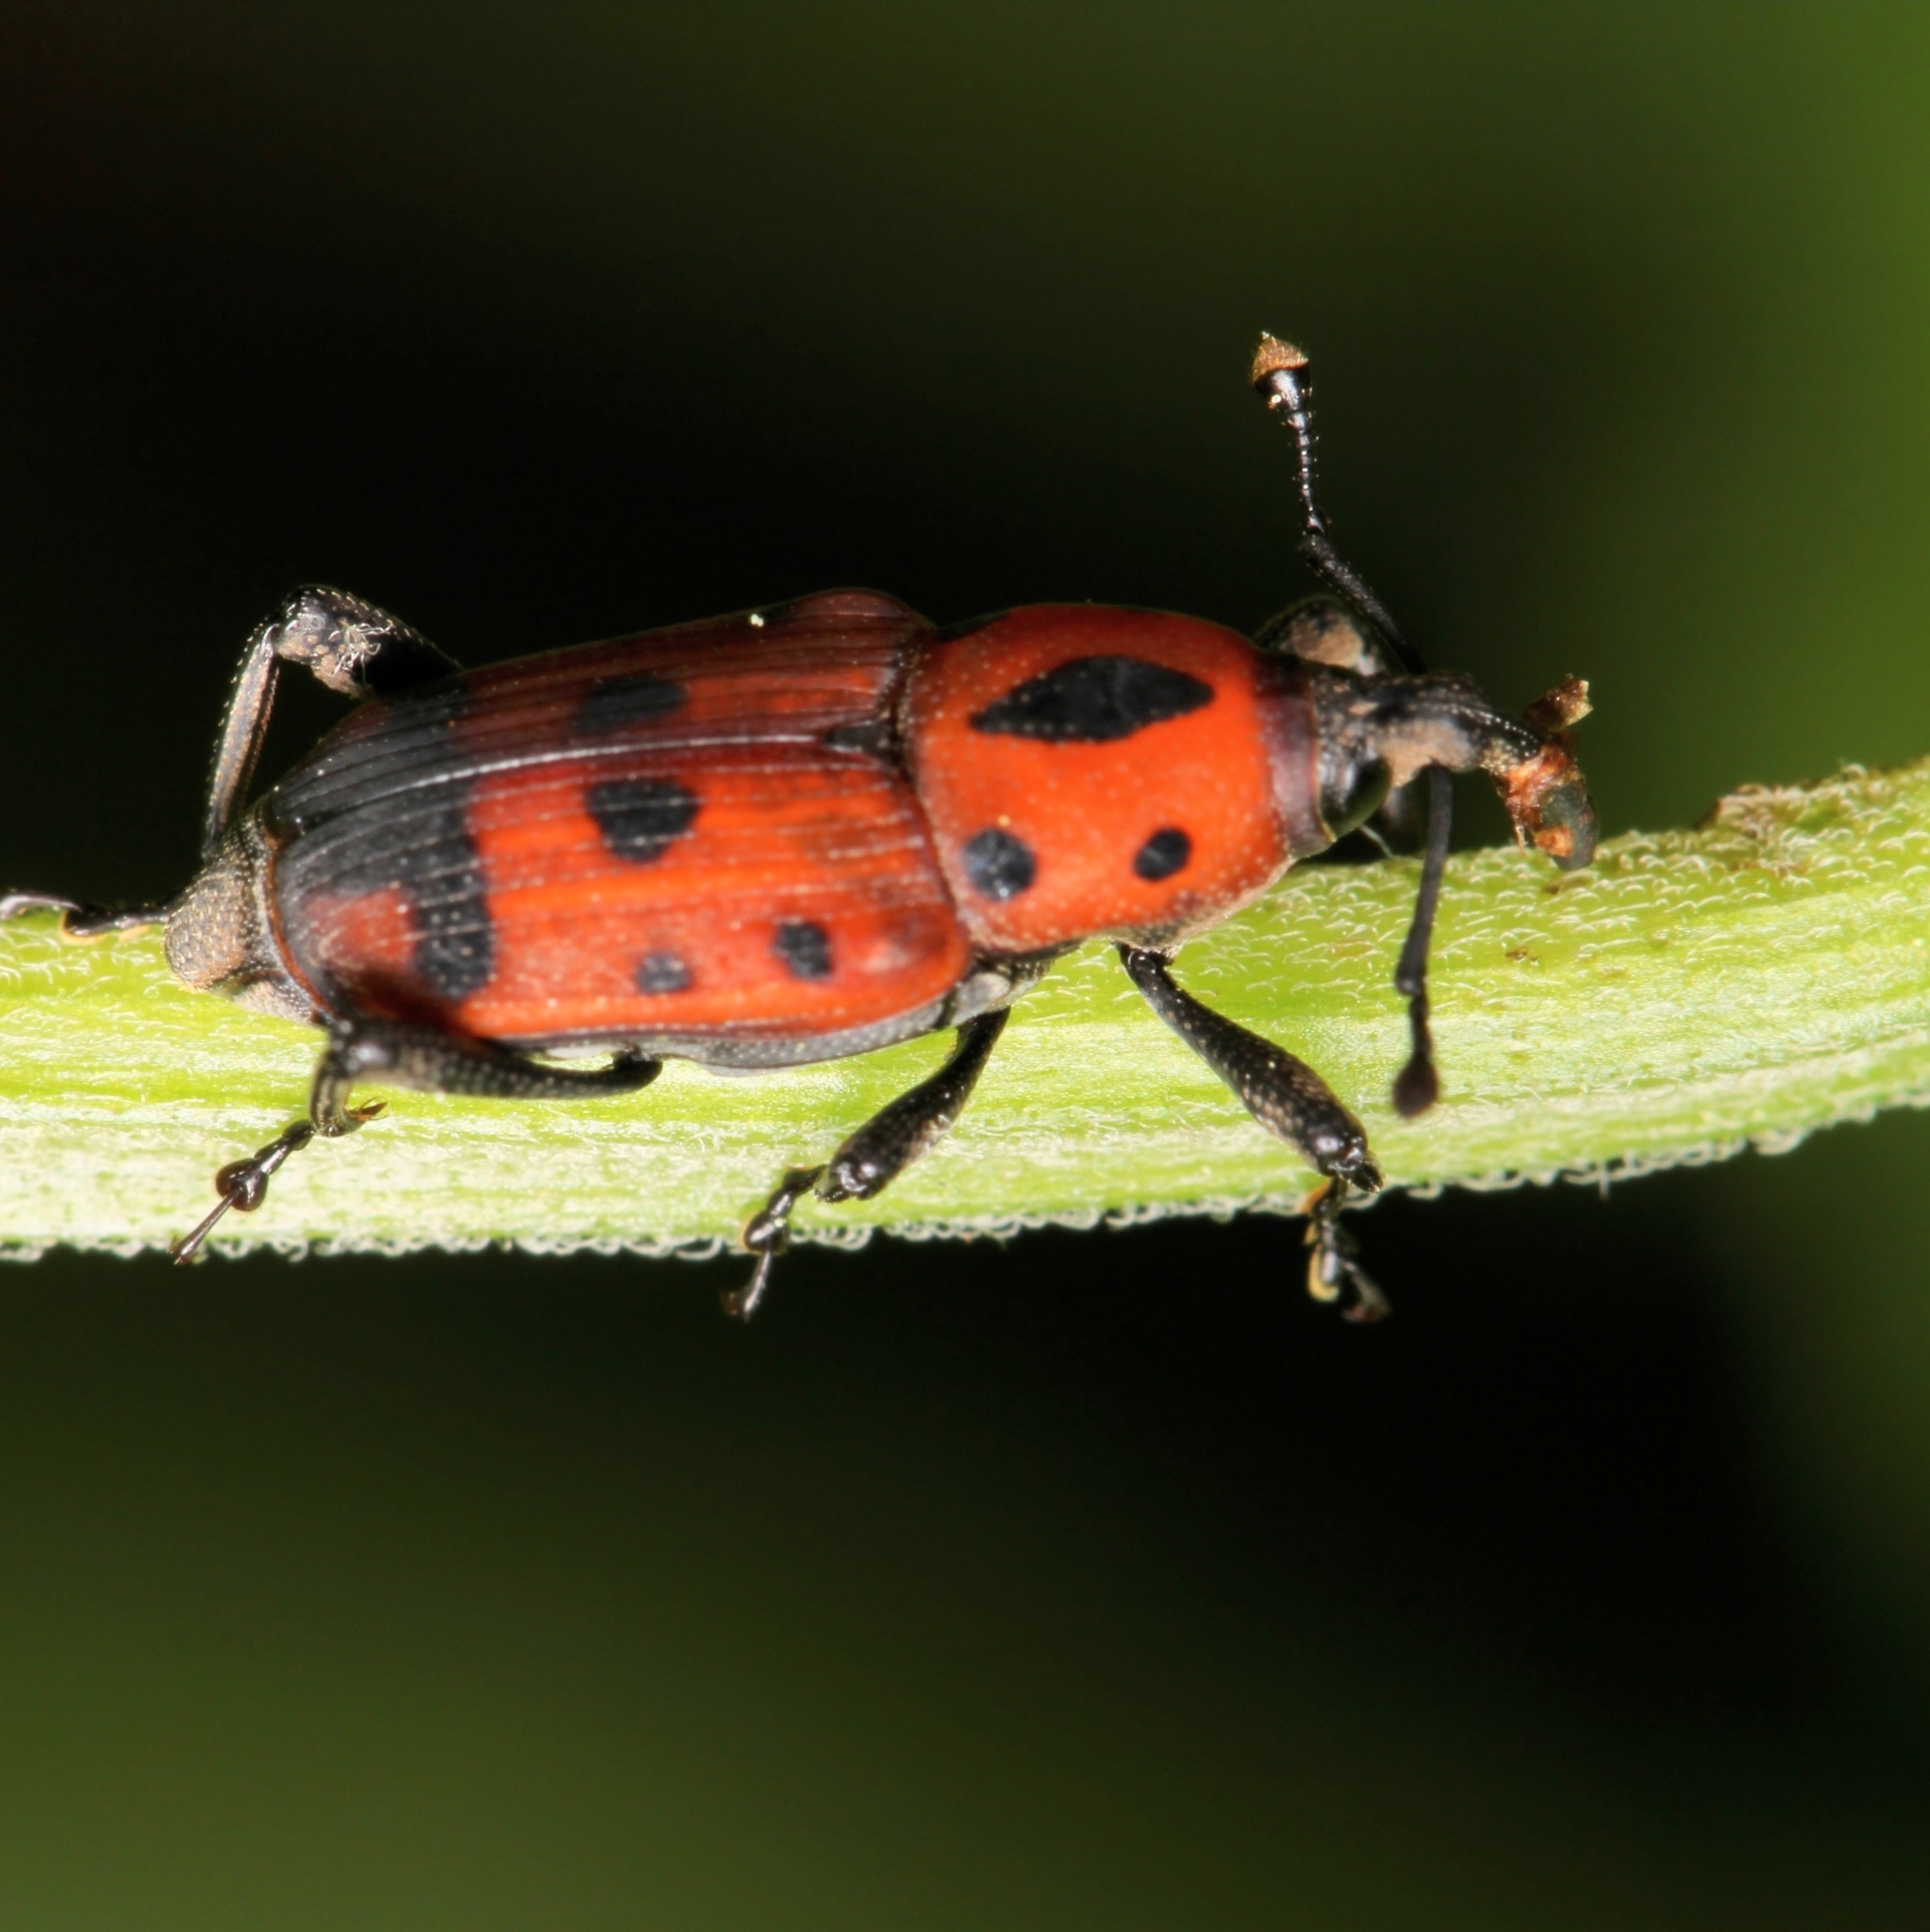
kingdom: Animalia
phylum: Arthropoda
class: Insecta
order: Coleoptera
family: Dryophthoridae
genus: Rhodobaenus
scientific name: Rhodobaenus quinquepunctatus
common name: Cocklebur weevil
